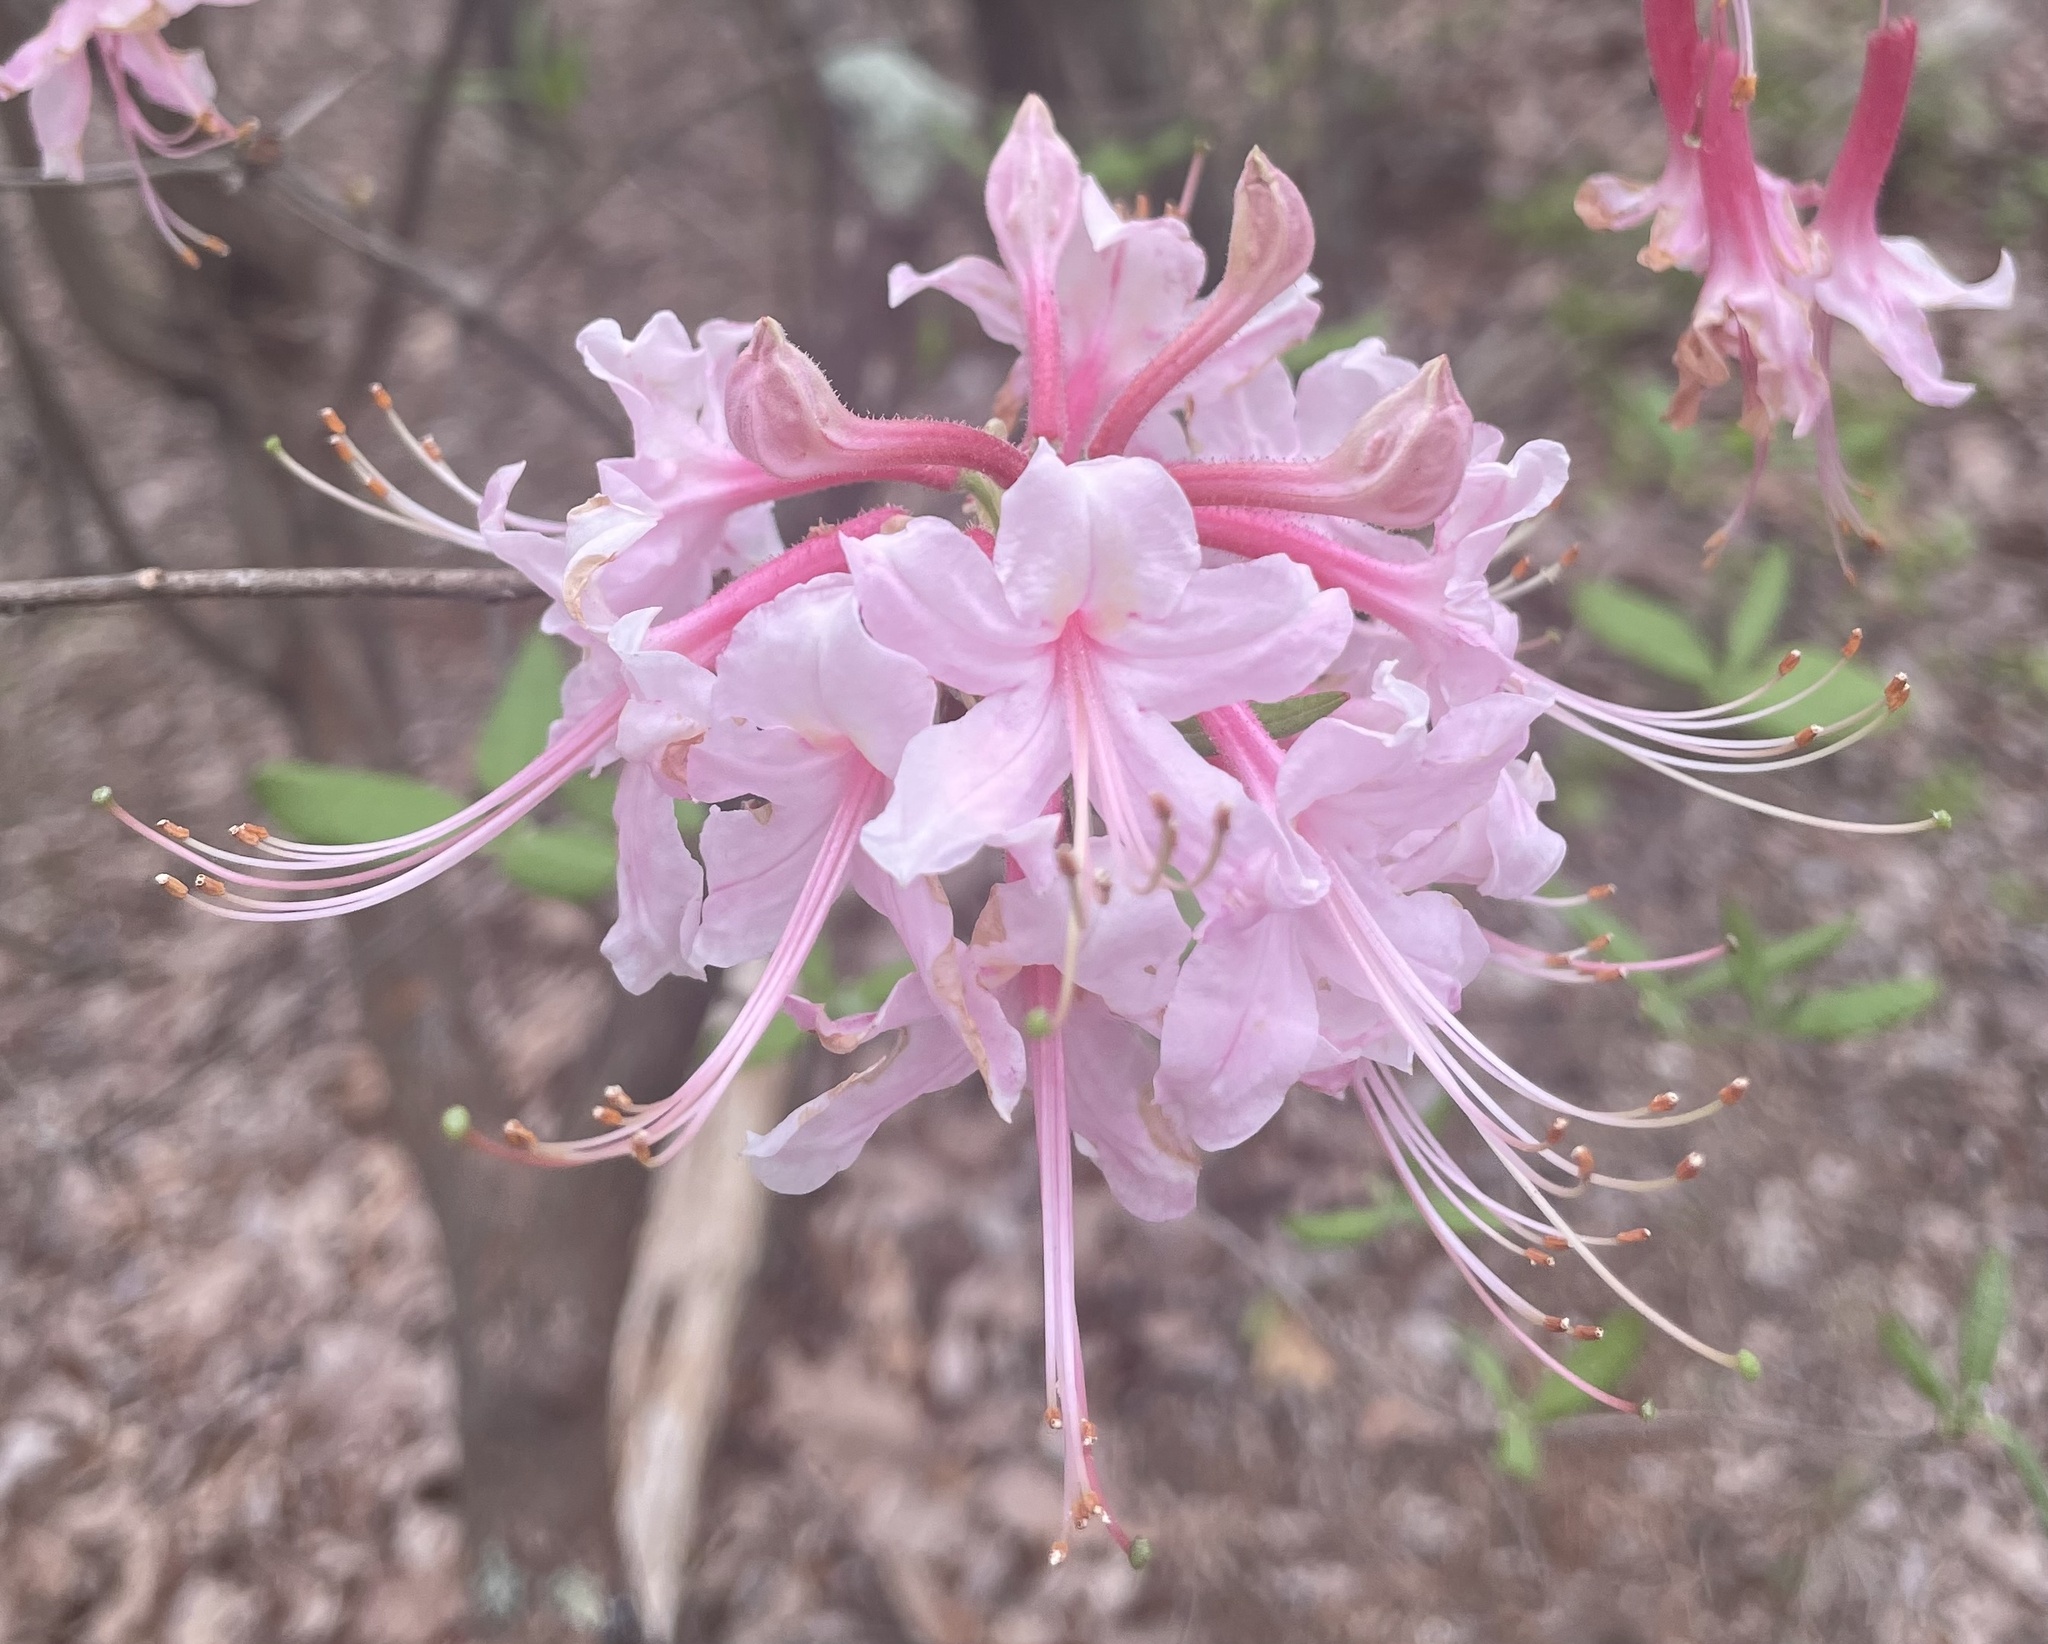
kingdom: Plantae
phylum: Tracheophyta
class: Magnoliopsida
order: Ericales
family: Ericaceae
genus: Rhododendron
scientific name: Rhododendron canescens
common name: Mountain azalea
